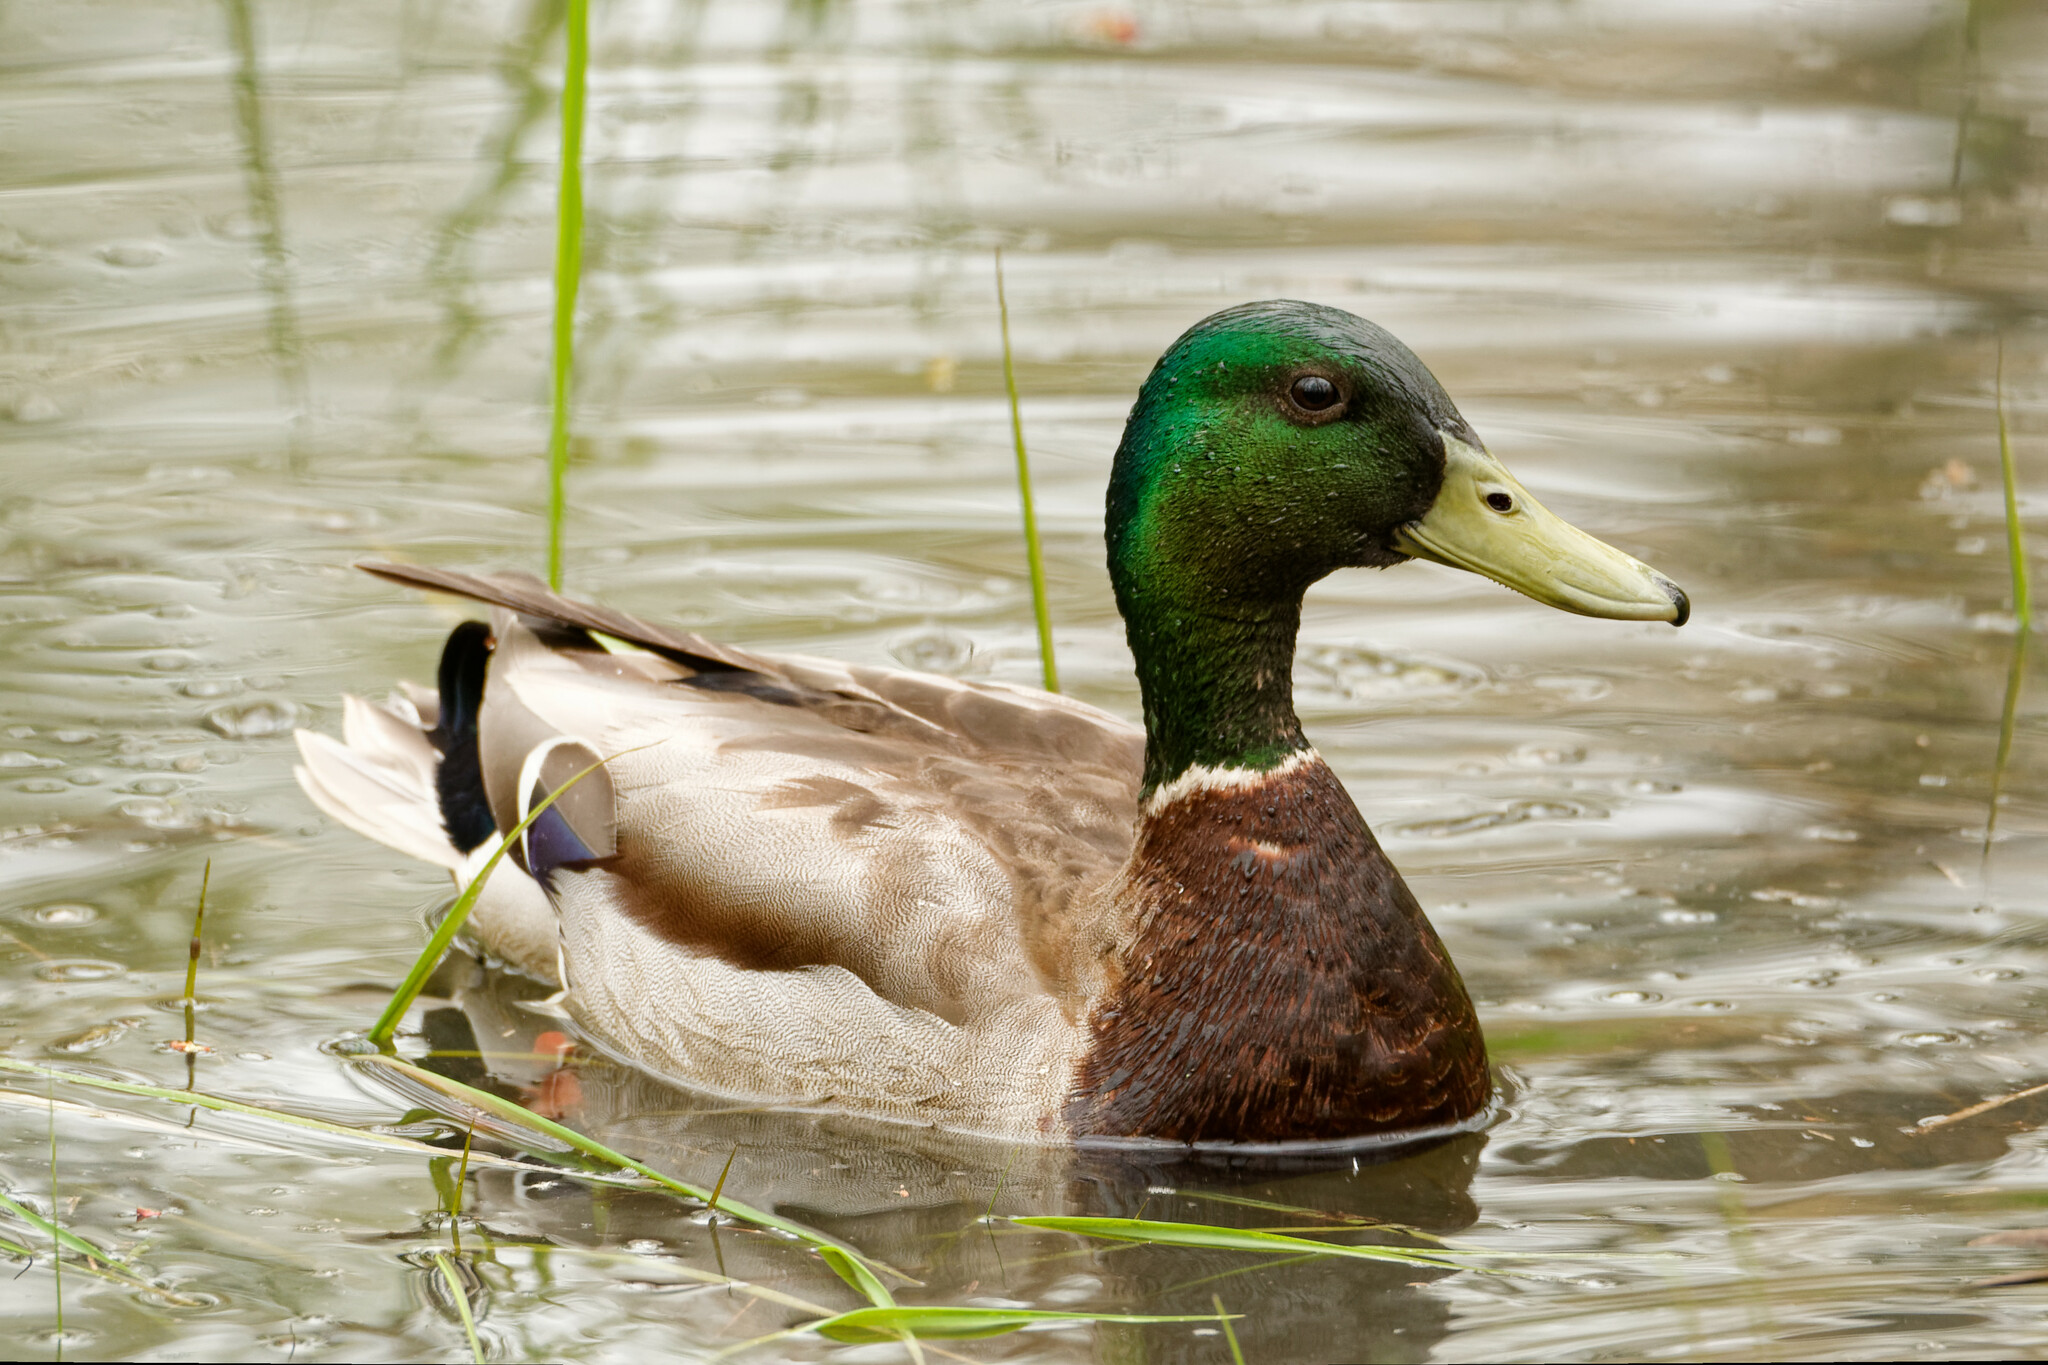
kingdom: Animalia
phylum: Chordata
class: Aves
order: Anseriformes
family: Anatidae
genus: Anas
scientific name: Anas platyrhynchos
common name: Mallard
